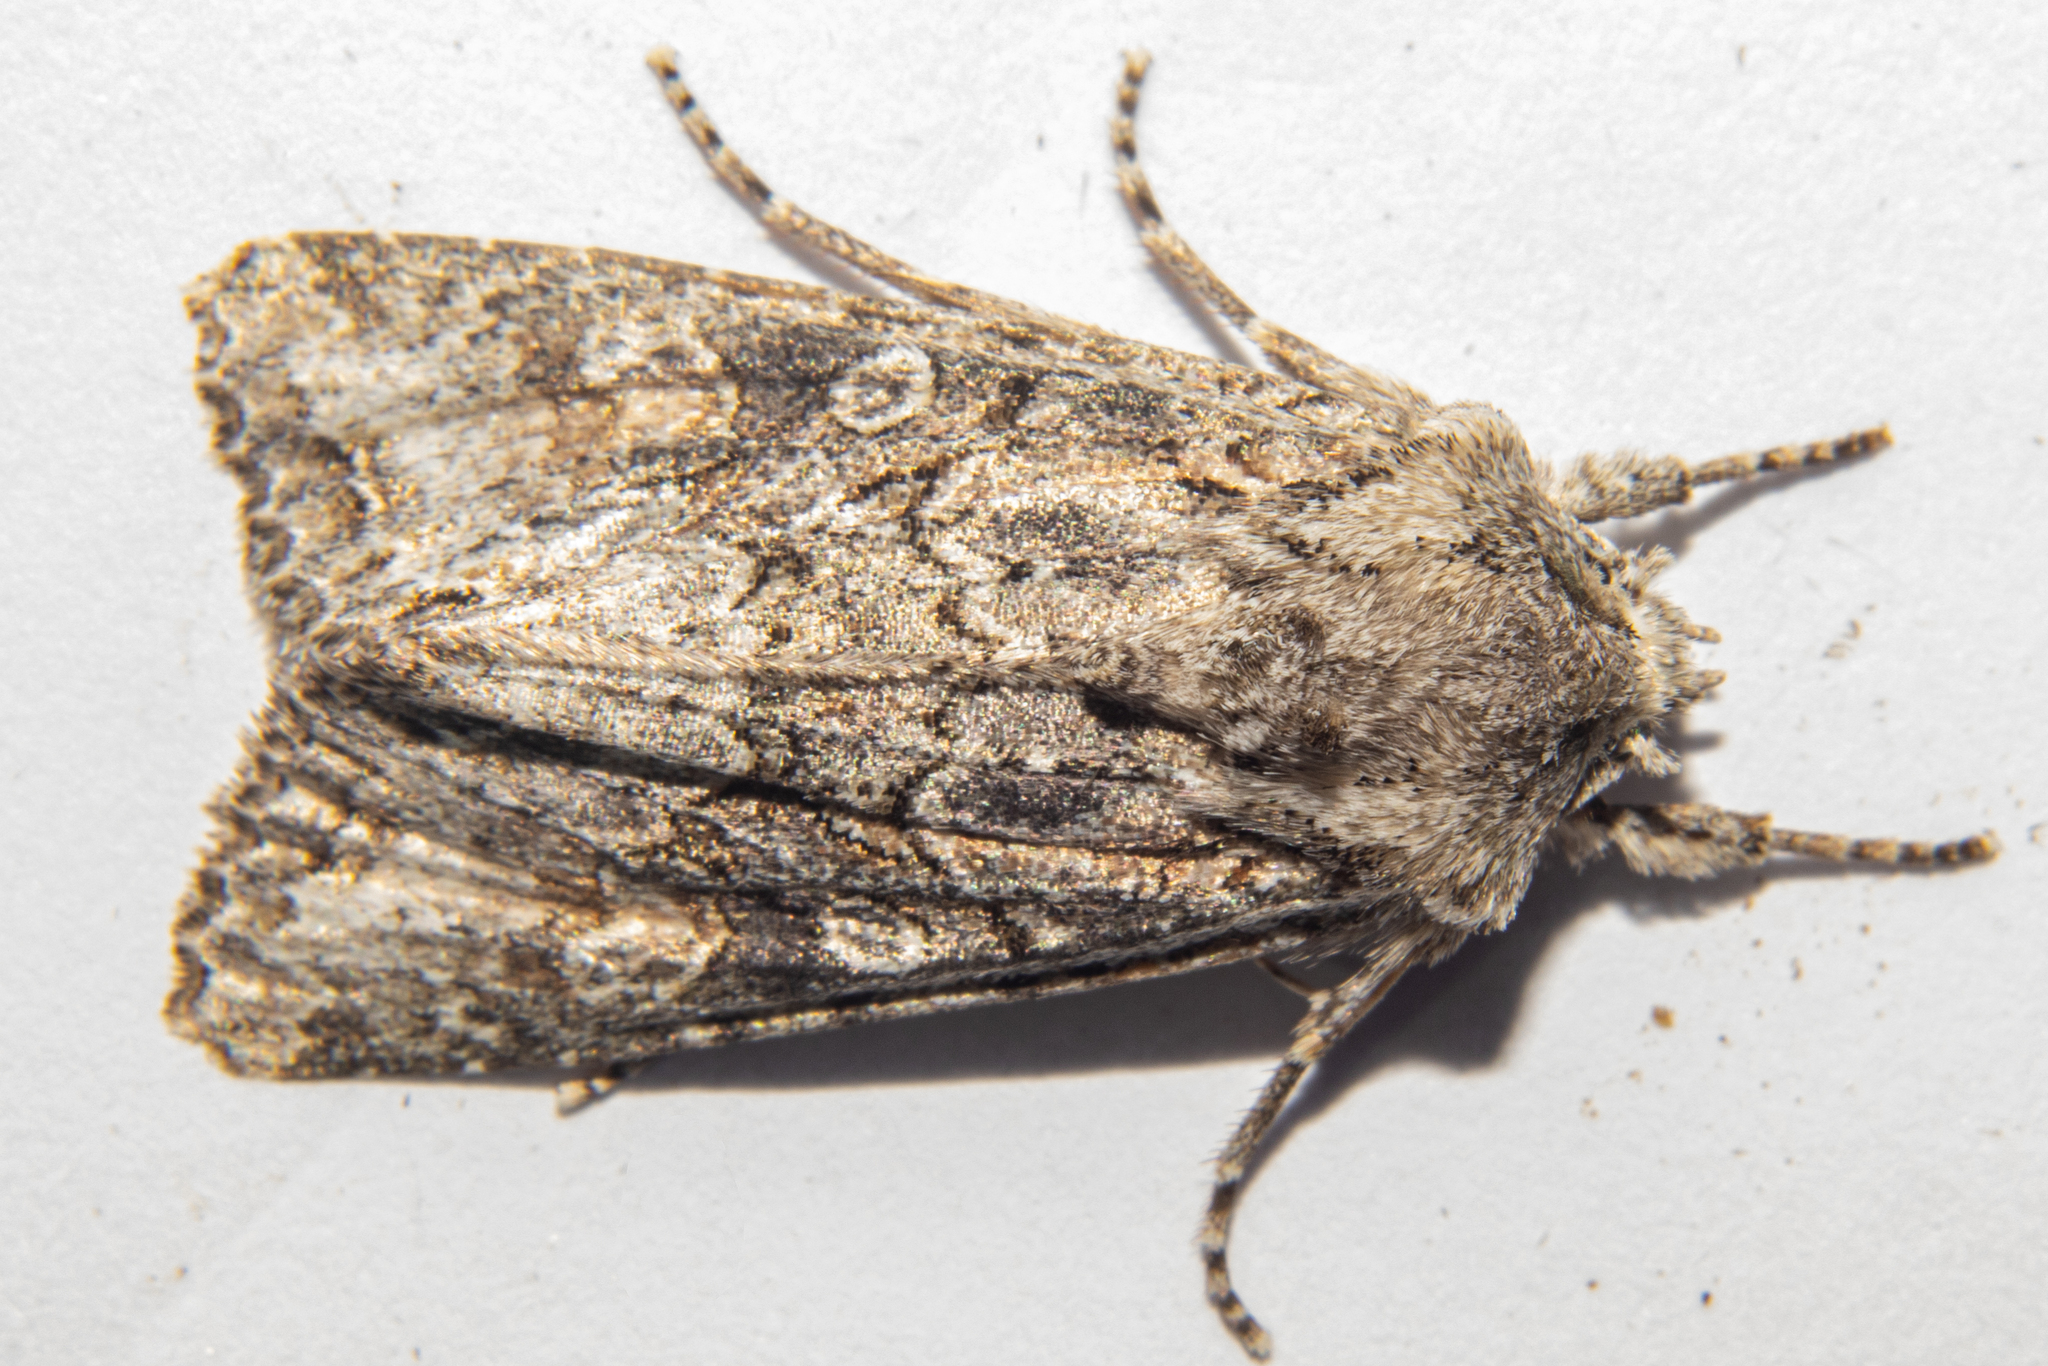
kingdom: Animalia
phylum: Arthropoda
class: Insecta
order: Lepidoptera
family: Noctuidae
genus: Ichneutica
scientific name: Ichneutica mutans
